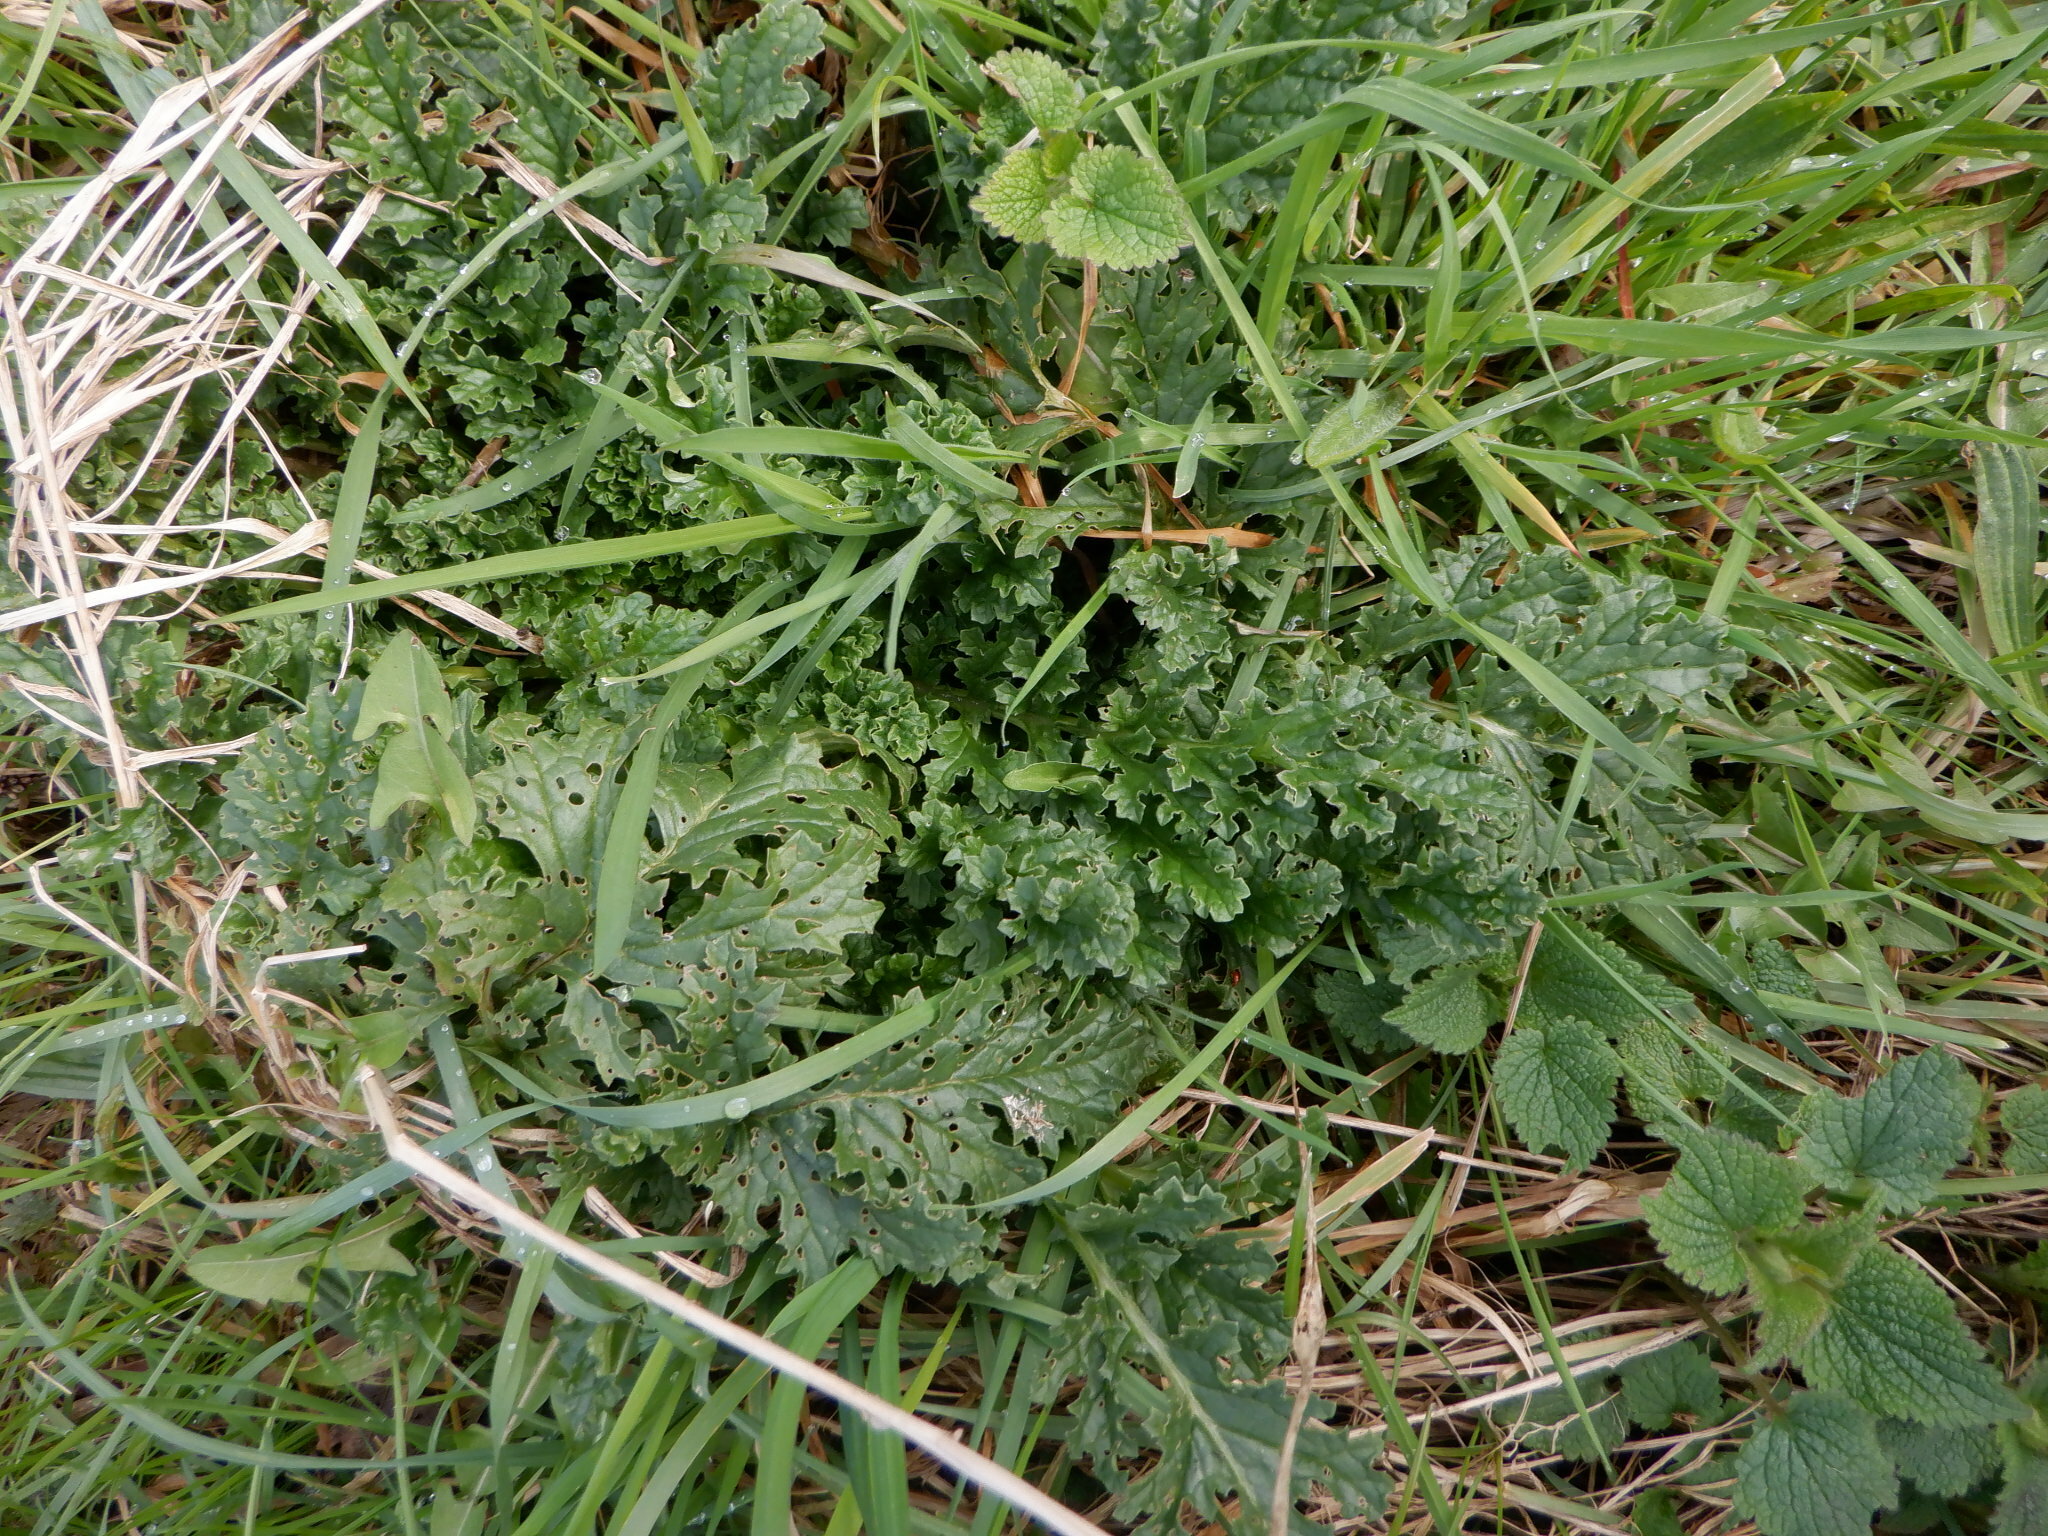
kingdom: Plantae
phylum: Tracheophyta
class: Magnoliopsida
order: Asterales
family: Asteraceae
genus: Jacobaea
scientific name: Jacobaea vulgaris
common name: Stinking willie
